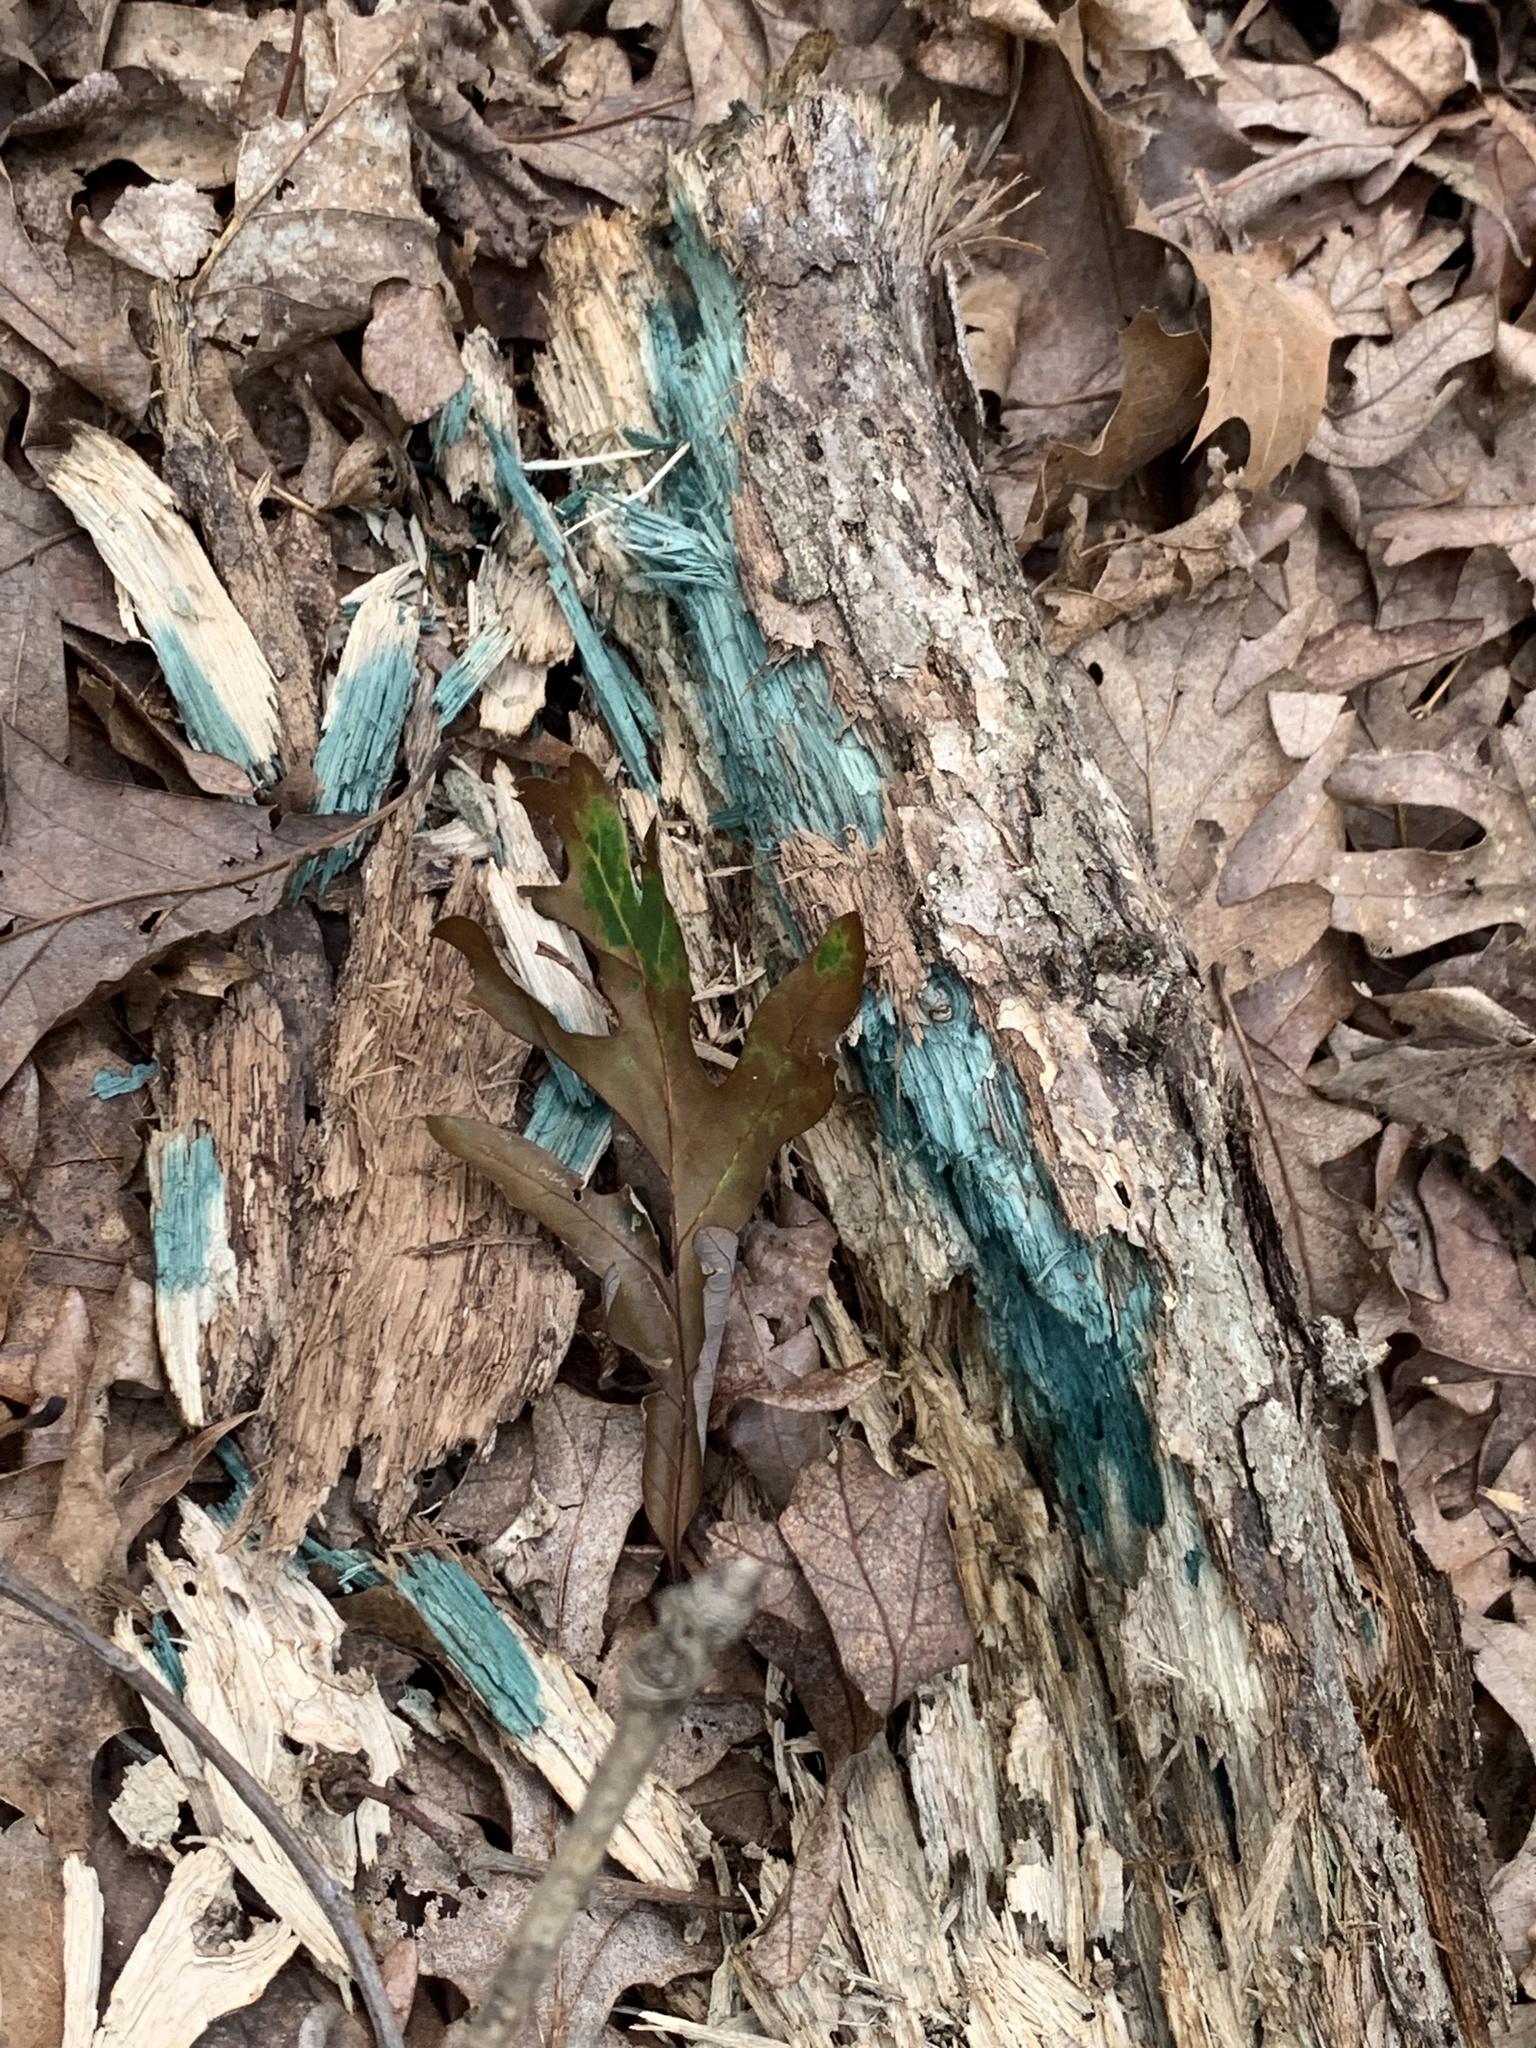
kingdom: Fungi
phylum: Ascomycota
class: Leotiomycetes
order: Helotiales
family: Chlorociboriaceae
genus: Chlorociboria
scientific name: Chlorociboria aeruginascens
